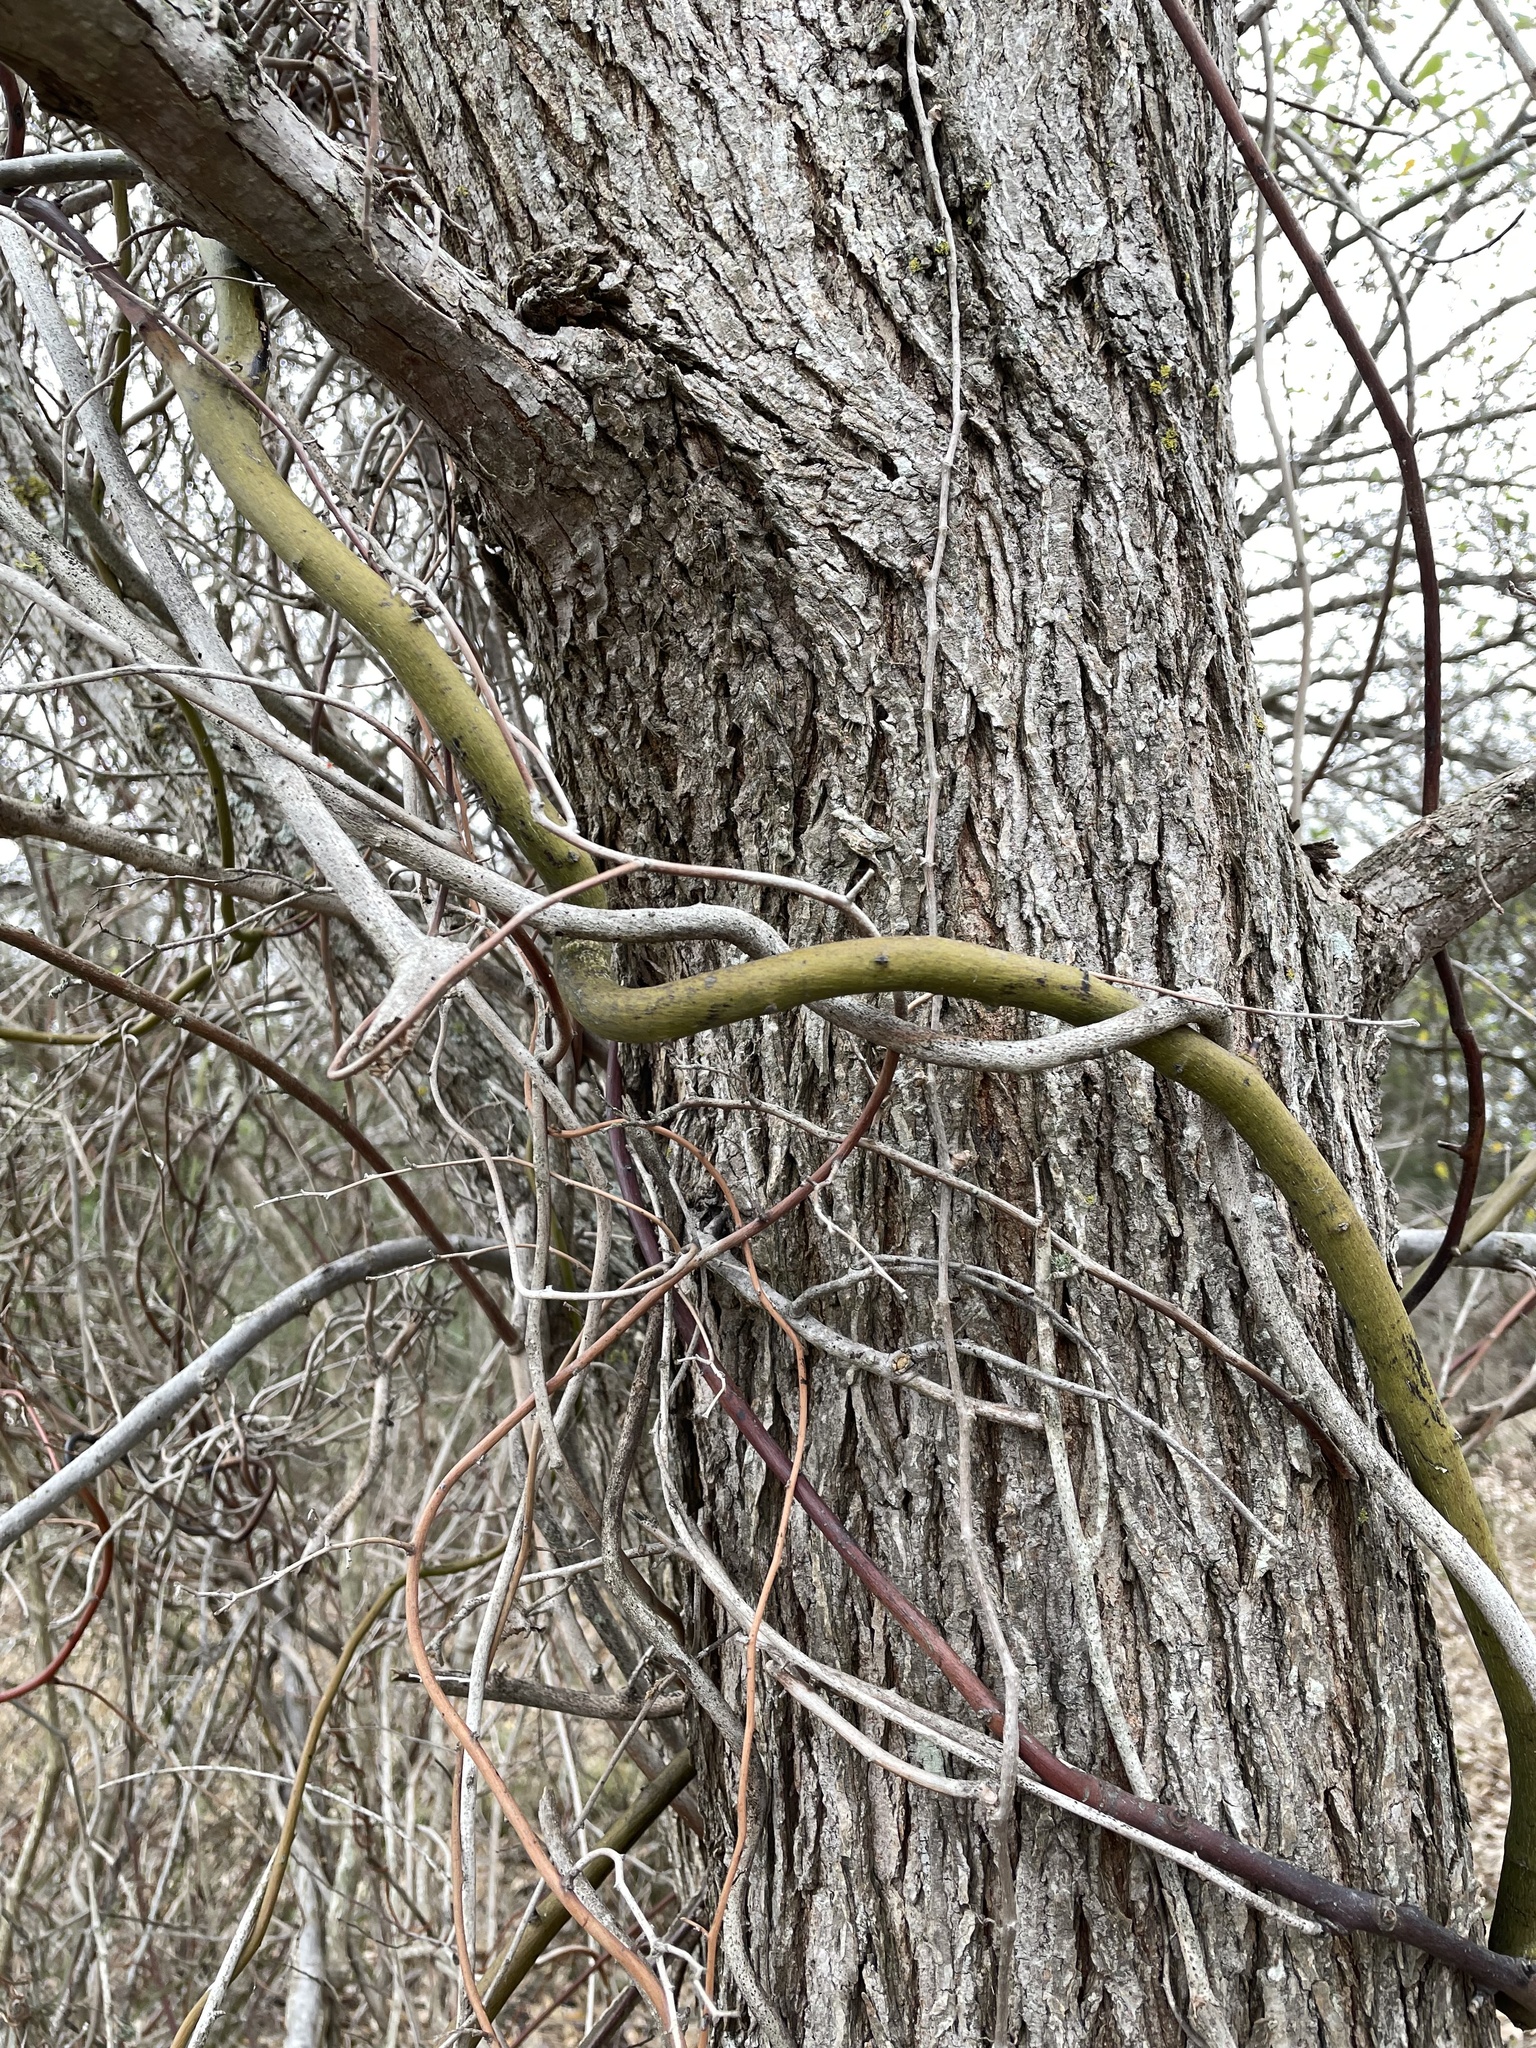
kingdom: Plantae
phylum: Tracheophyta
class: Magnoliopsida
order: Rosales
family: Rhamnaceae
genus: Berchemia
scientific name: Berchemia scandens
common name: Supplejack
